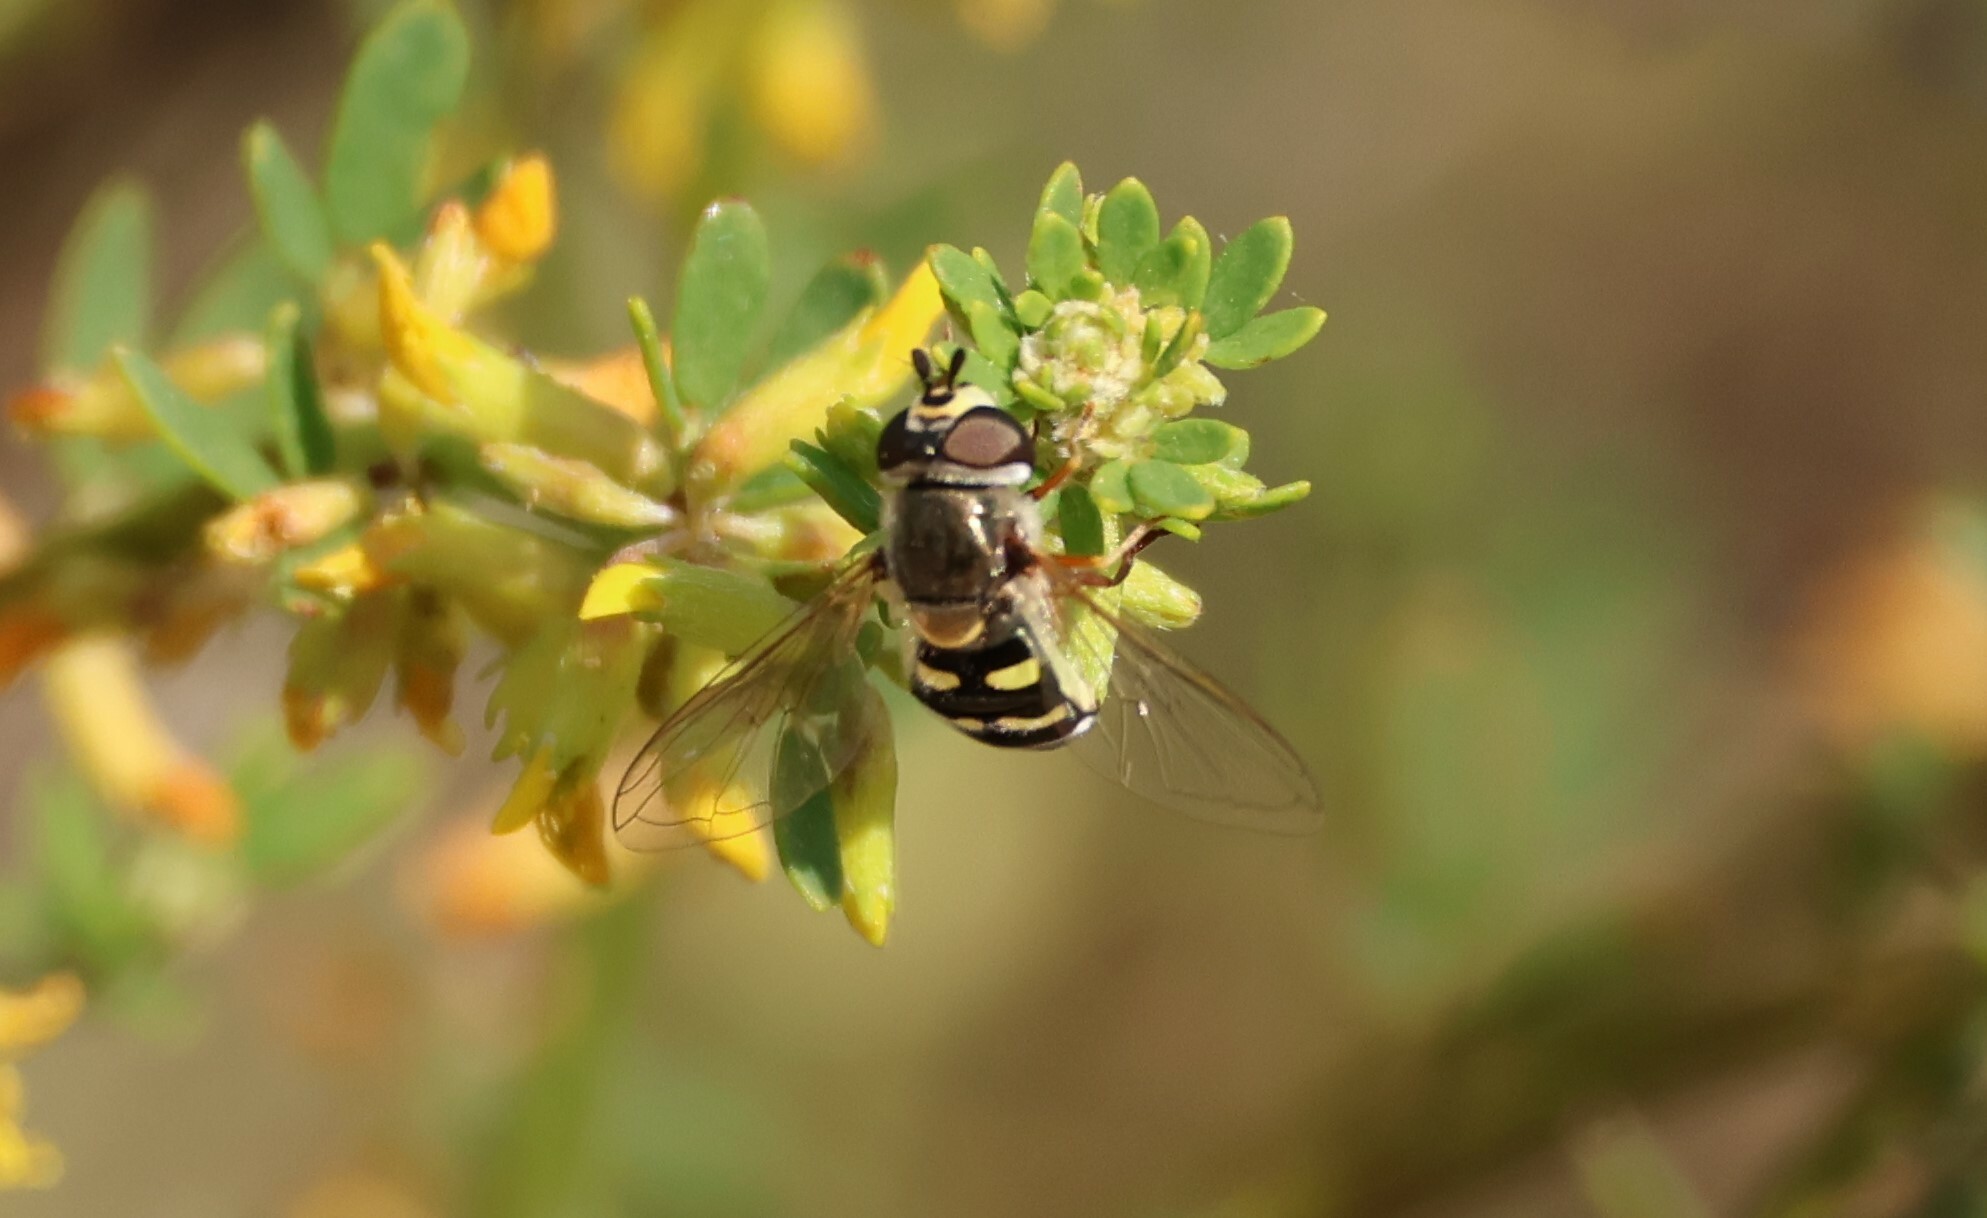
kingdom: Animalia
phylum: Arthropoda
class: Insecta
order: Diptera
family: Syrphidae
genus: Eupeodes
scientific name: Eupeodes volucris
